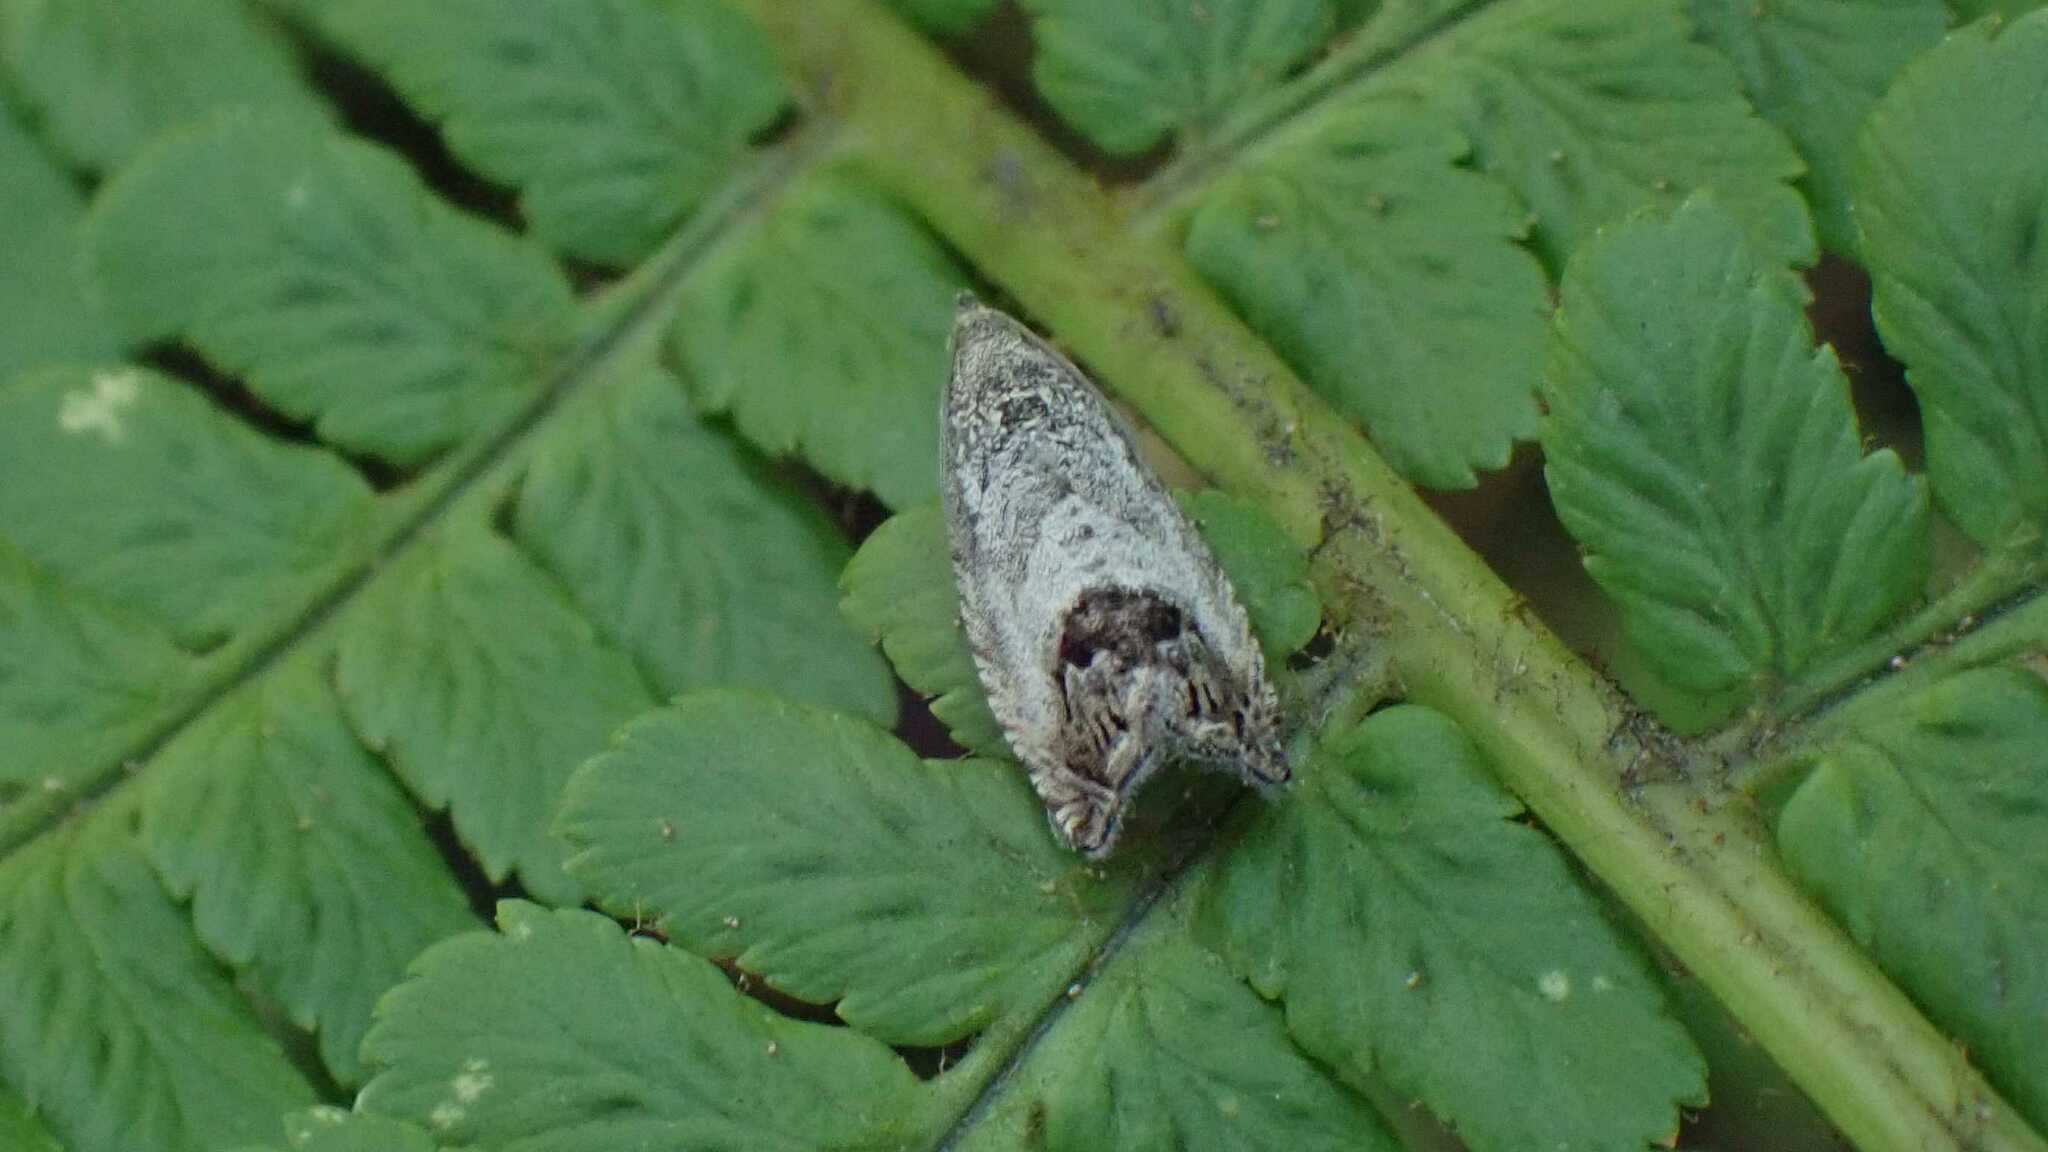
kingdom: Animalia
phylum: Arthropoda
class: Insecta
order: Lepidoptera
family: Tortricidae
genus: Cydia
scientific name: Cydia splendana
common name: De: kastanienwickler, eichenwickler es: oruga de la castaña fr: carpocapse des châtaignes it: cidia o tortrice tardiva delle castagne pt: bichado das castanhas gb: acorn moth, chestnut fruit tortrix
